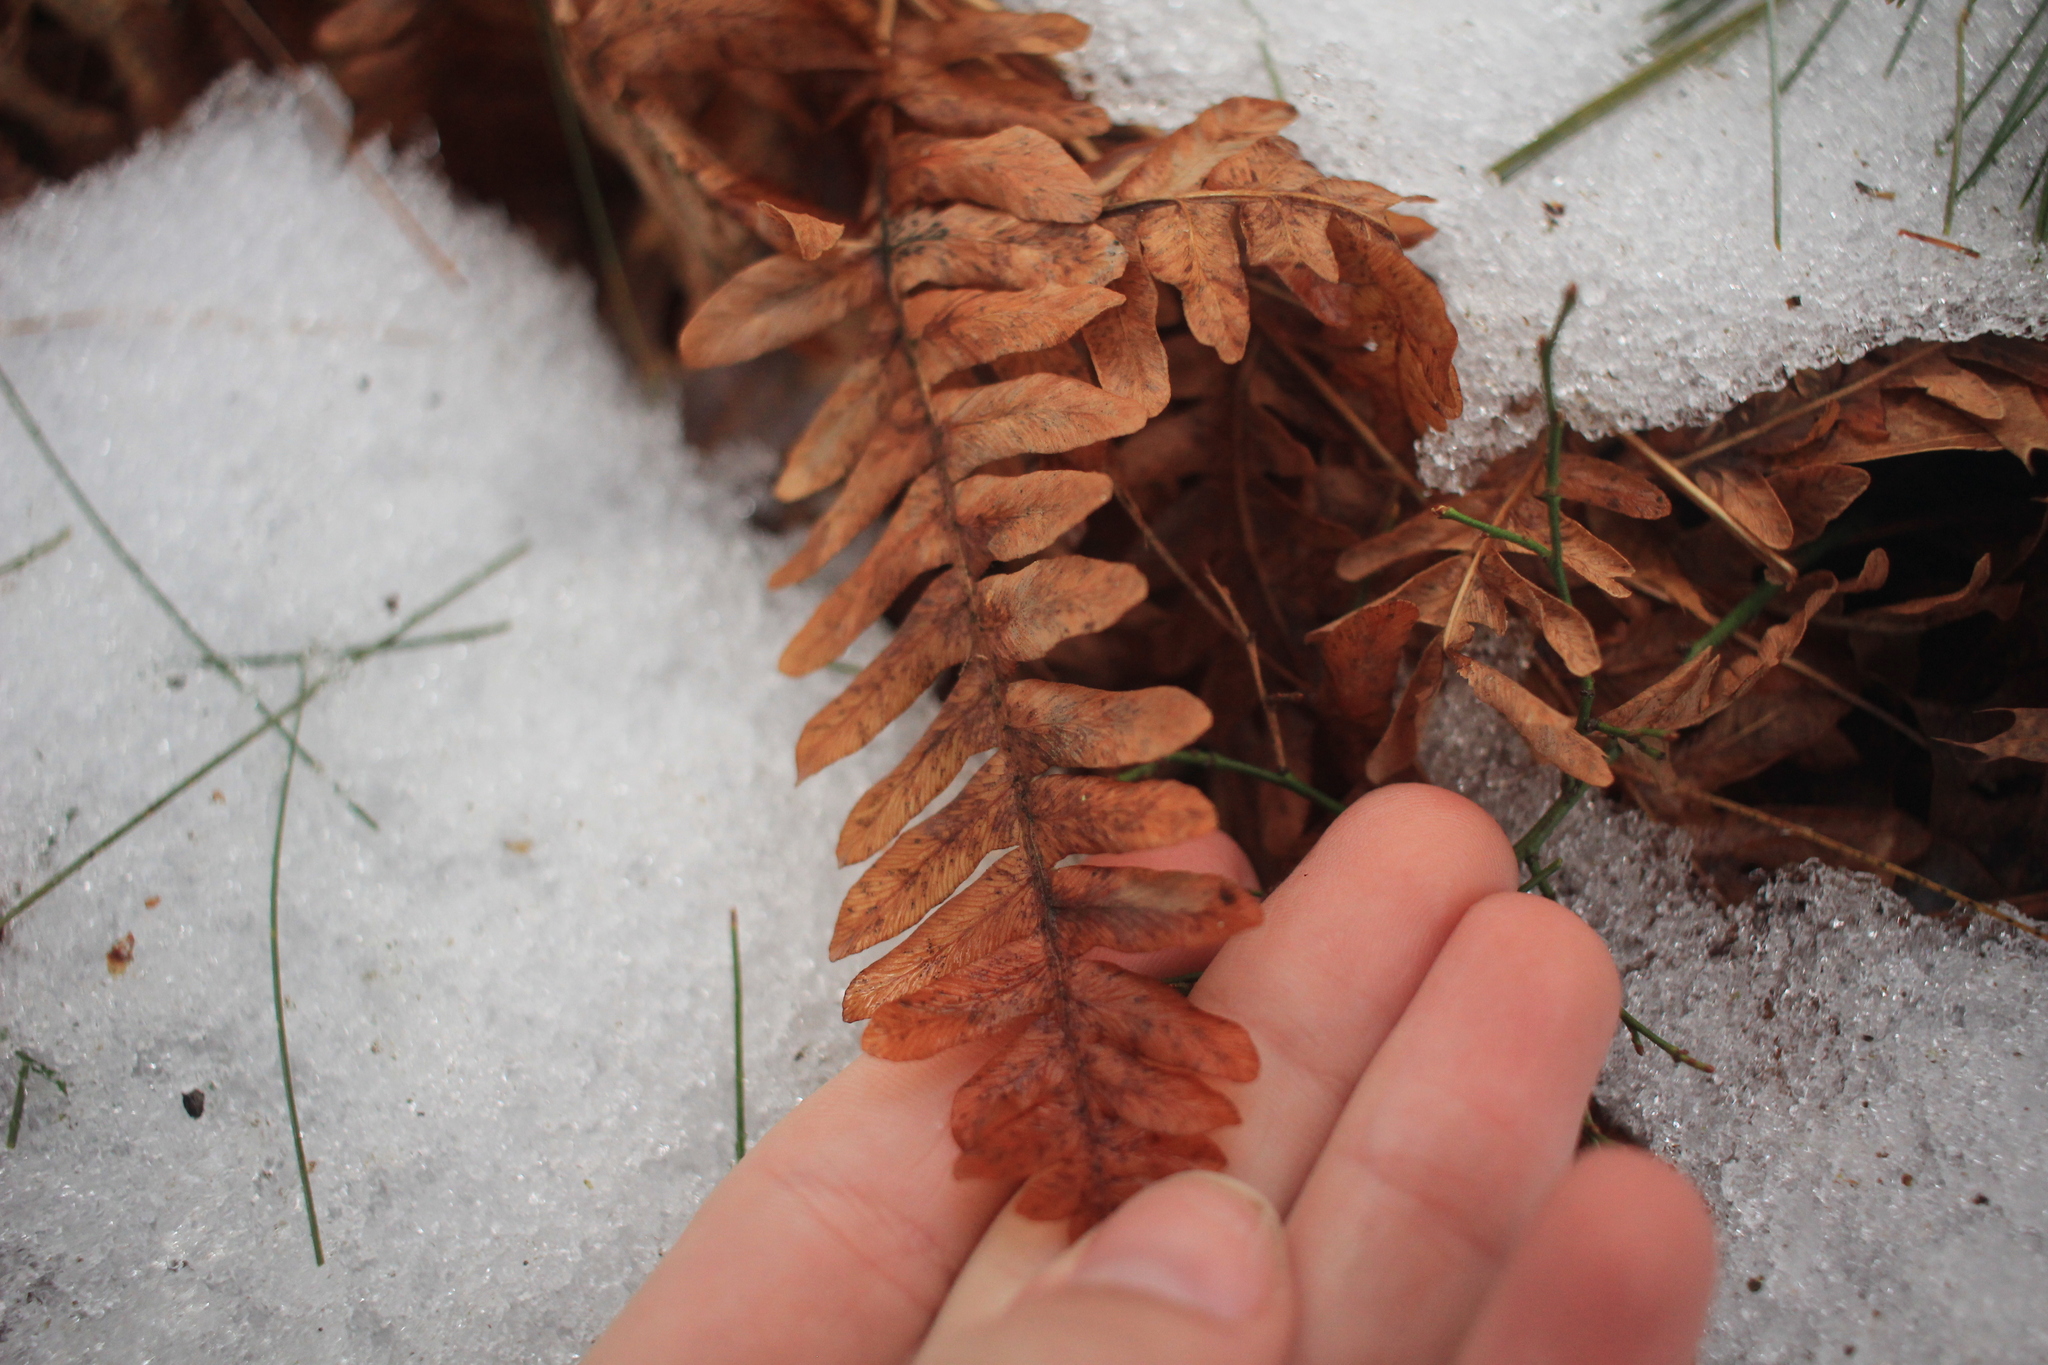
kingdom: Plantae
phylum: Tracheophyta
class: Polypodiopsida
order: Polypodiales
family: Dennstaedtiaceae
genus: Pteridium
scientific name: Pteridium aquilinum
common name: Bracken
